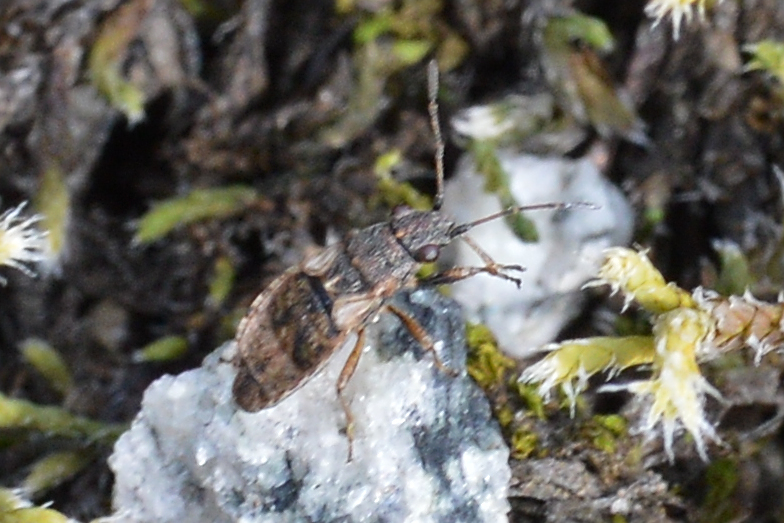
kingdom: Animalia
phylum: Arthropoda
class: Insecta
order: Hemiptera
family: Lygaeidae
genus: Nithecus
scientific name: Nithecus jacobaeae
